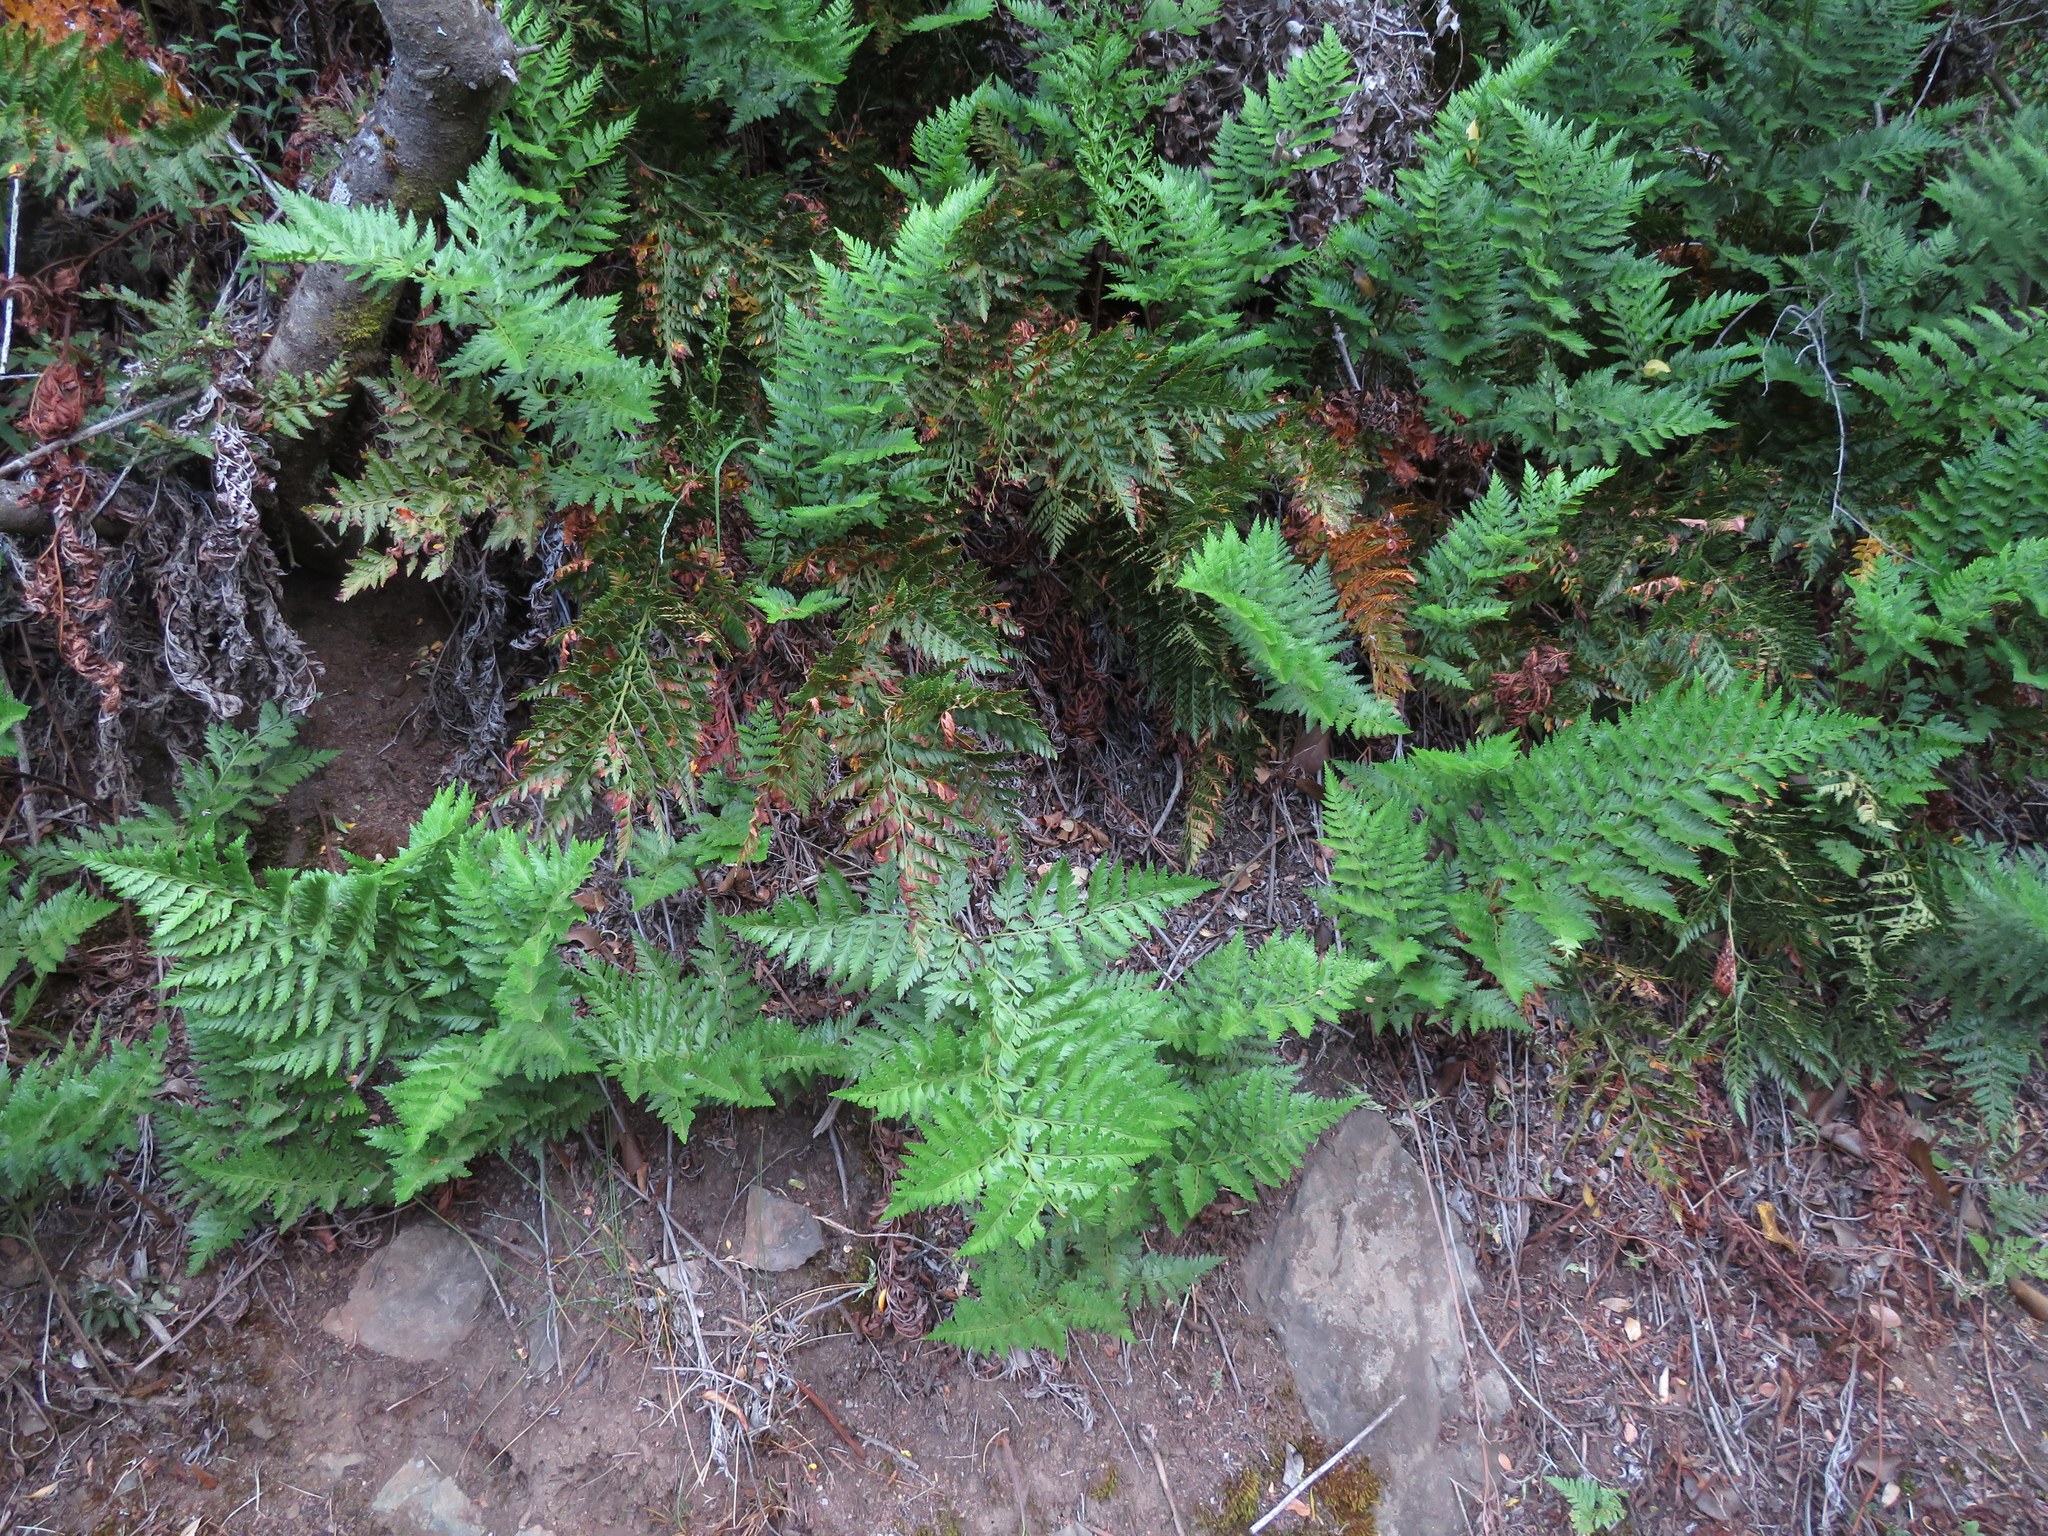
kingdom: Plantae
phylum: Tracheophyta
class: Polypodiopsida
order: Polypodiales
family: Dryopteridaceae
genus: Rumohra
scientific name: Rumohra adiantiformis
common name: Leather fern
